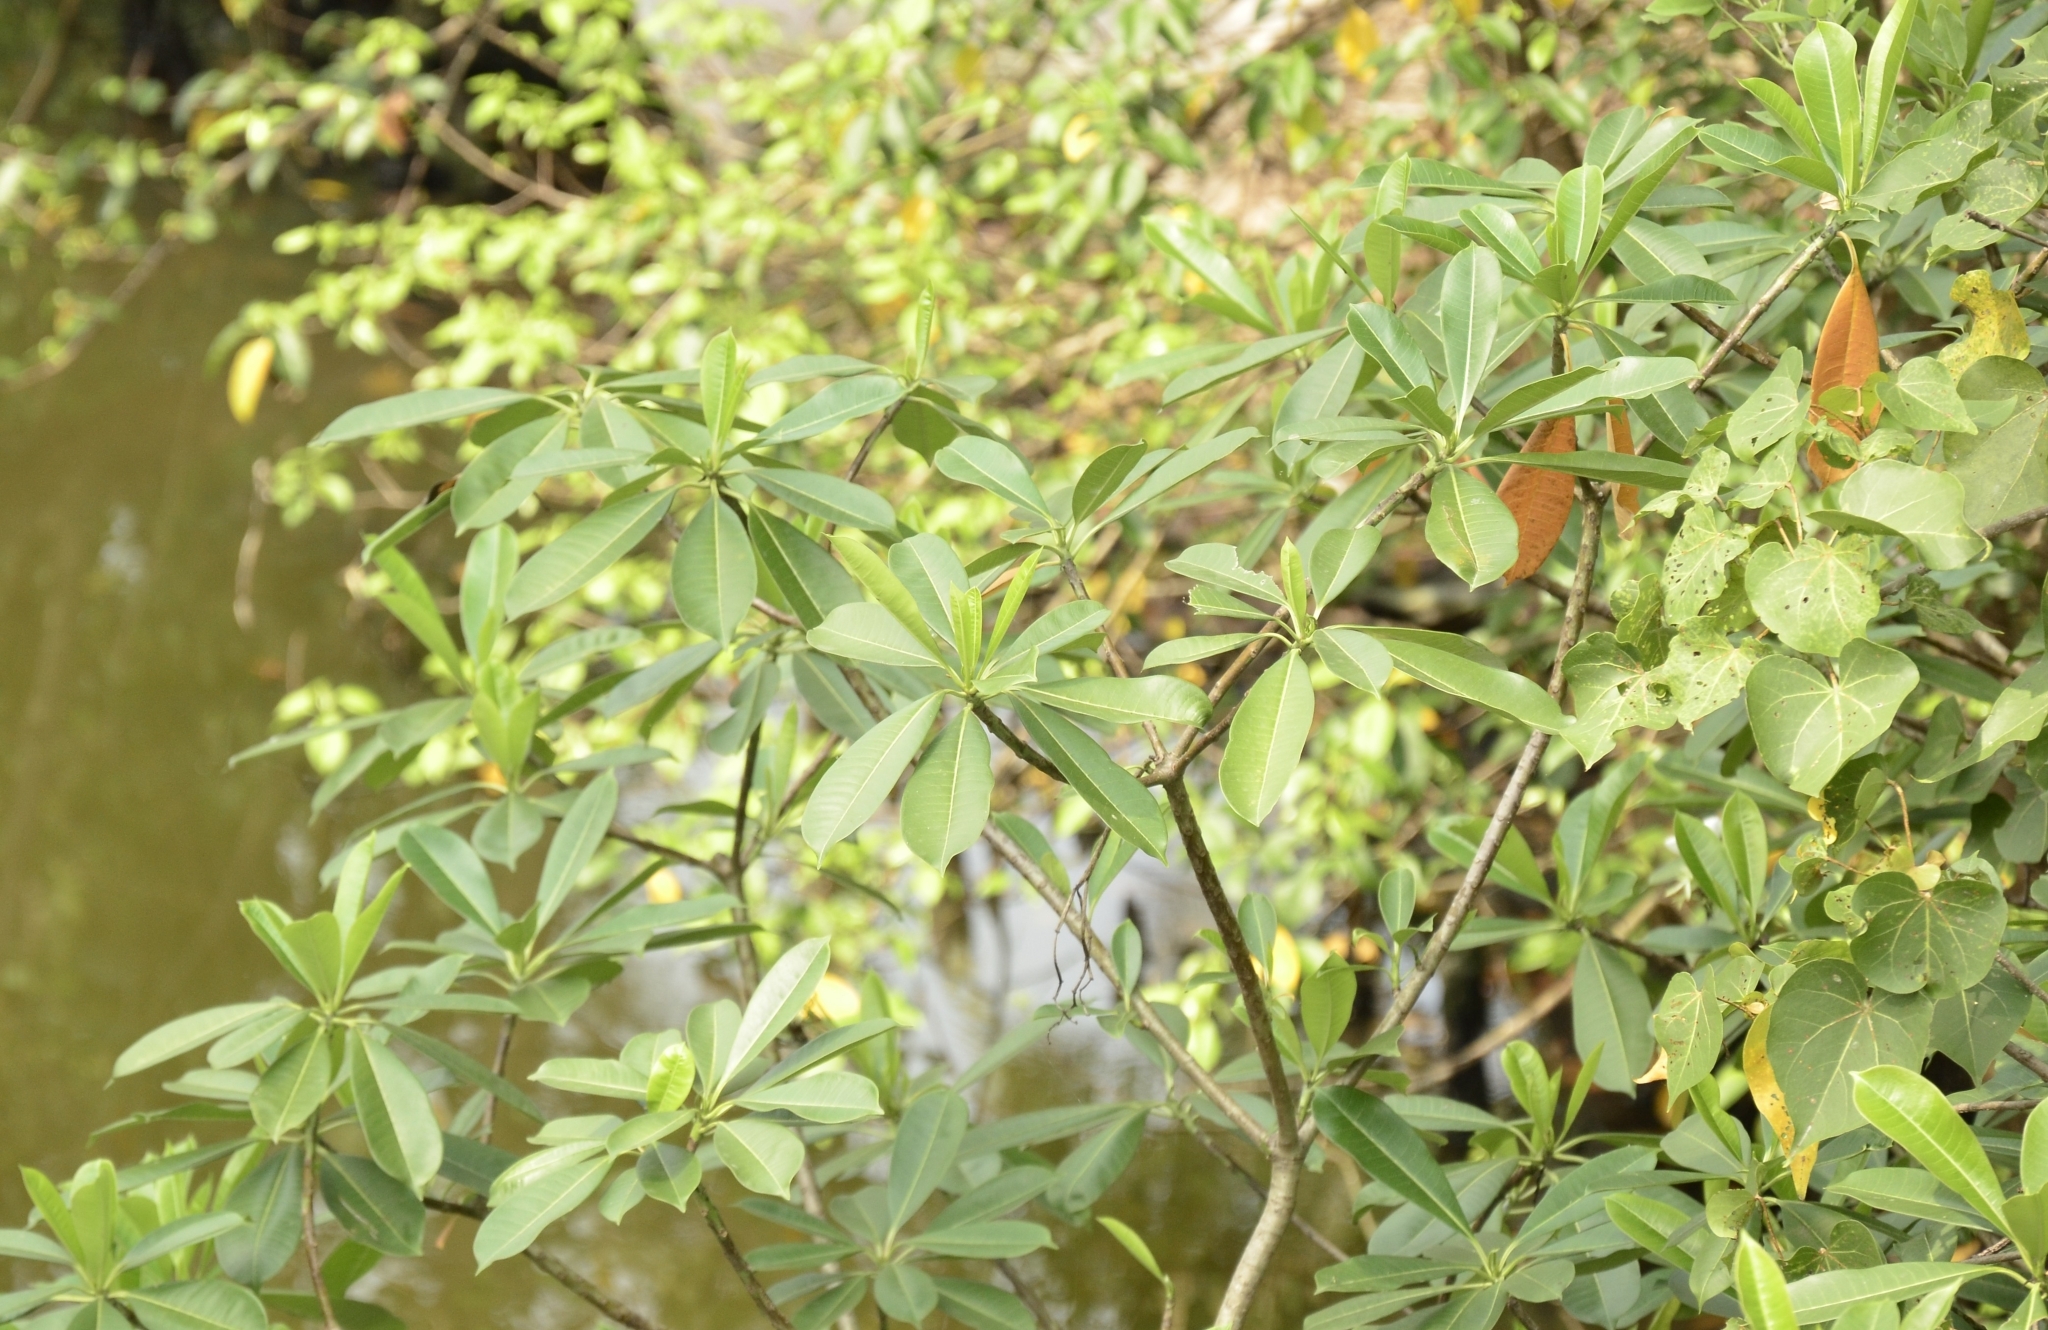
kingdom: Plantae
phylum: Tracheophyta
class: Magnoliopsida
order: Gentianales
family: Apocynaceae
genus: Cerbera
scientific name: Cerbera odollam
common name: Pong-pong
